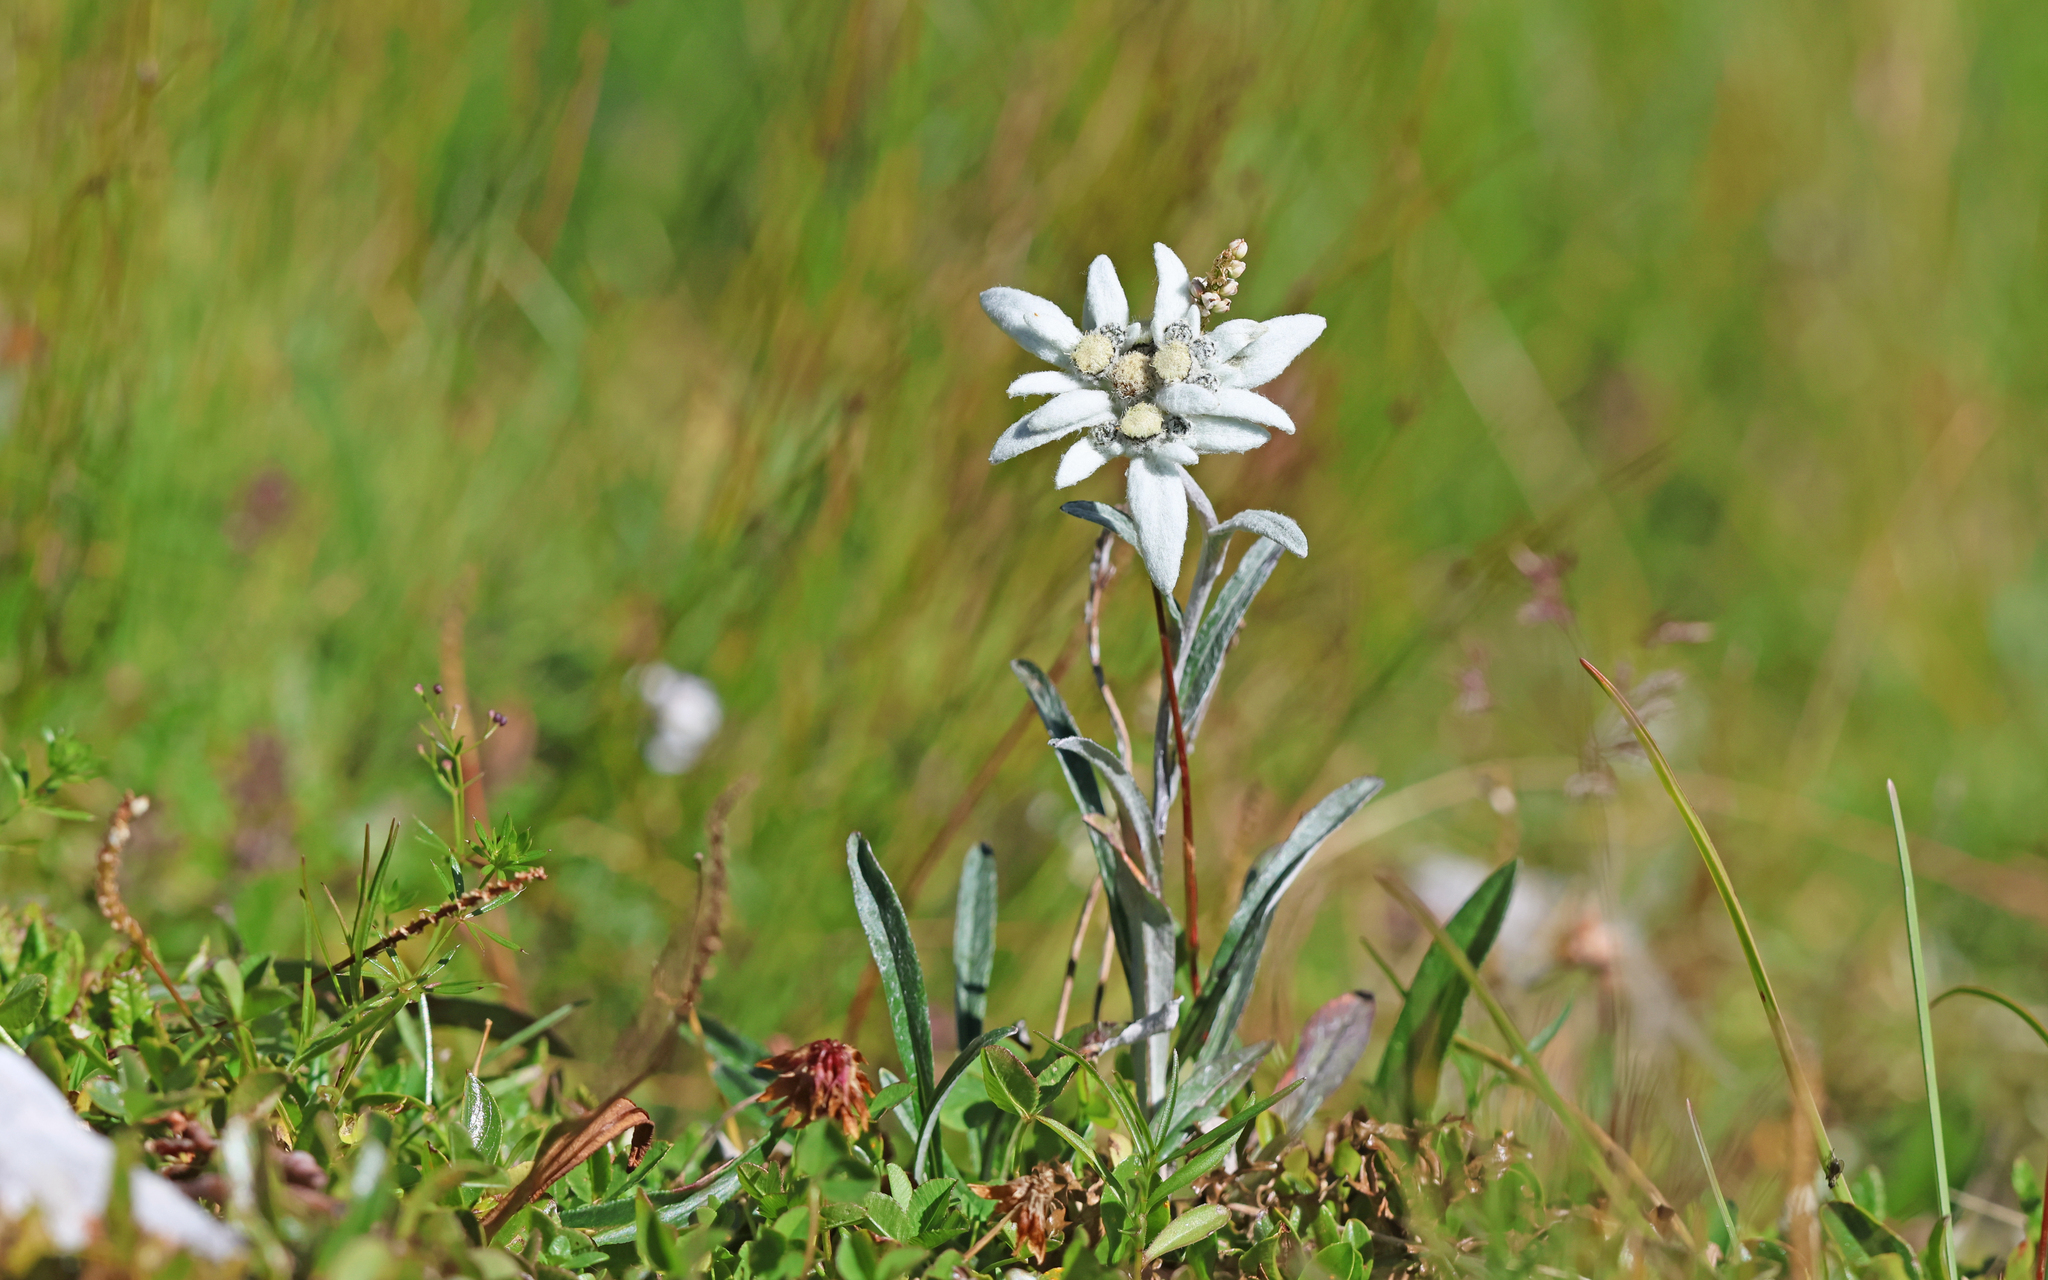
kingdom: Plantae
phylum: Tracheophyta
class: Magnoliopsida
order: Asterales
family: Asteraceae
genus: Leontopodium
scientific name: Leontopodium nivale
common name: Edelweiss
